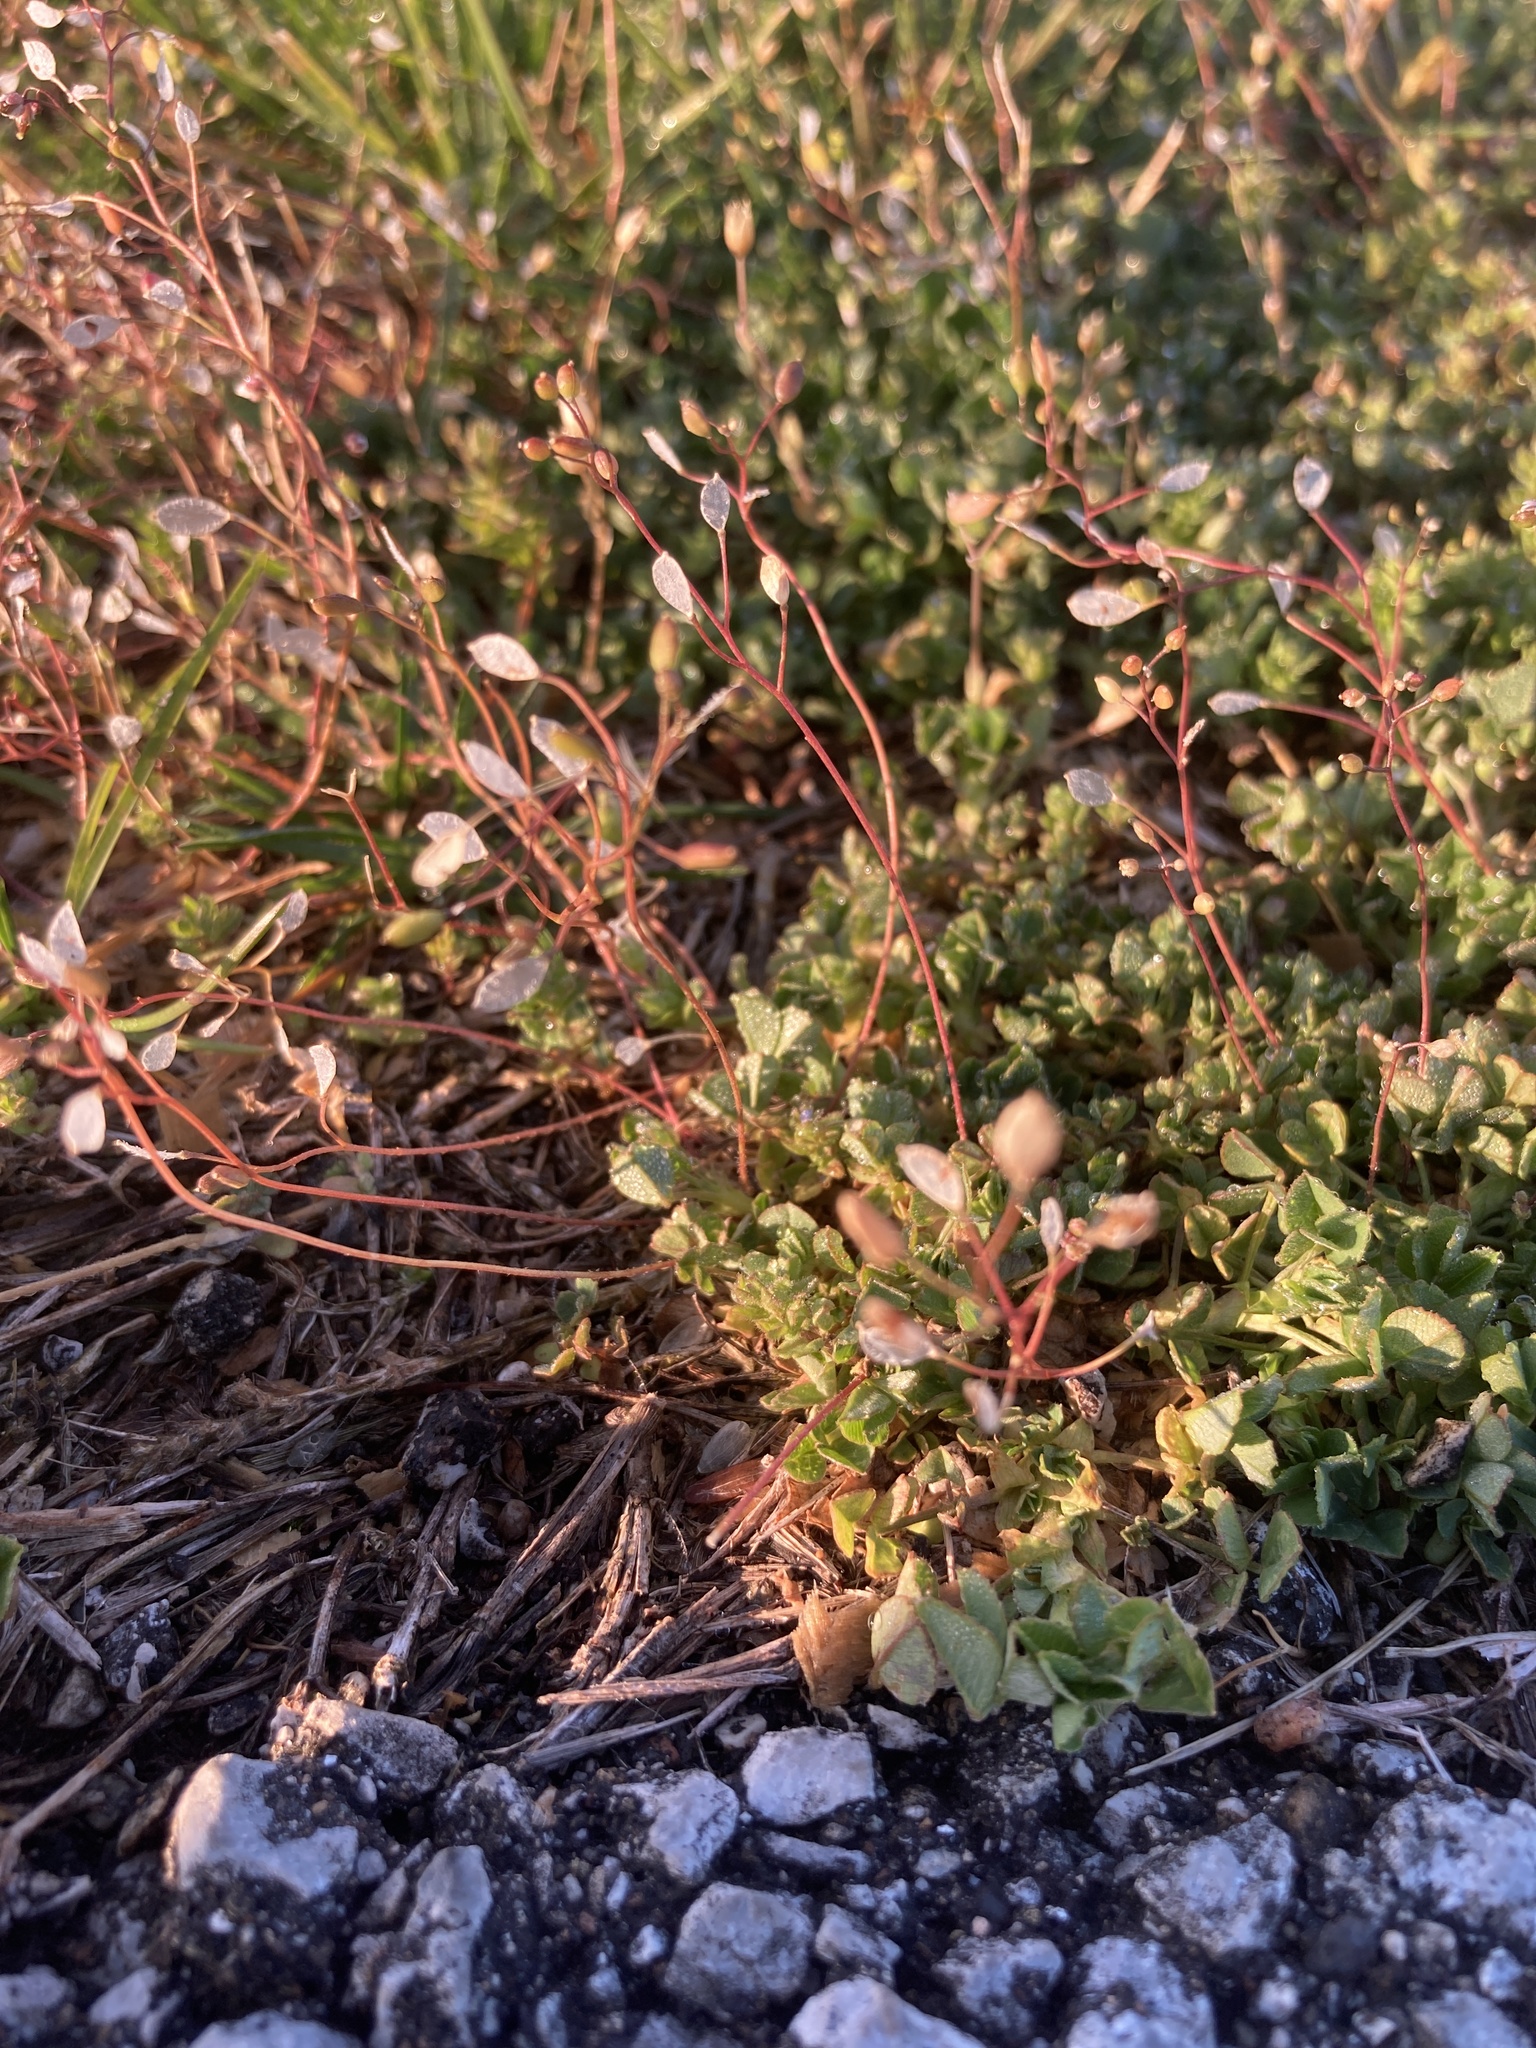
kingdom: Plantae
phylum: Tracheophyta
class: Magnoliopsida
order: Brassicales
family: Brassicaceae
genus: Draba
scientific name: Draba verna
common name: Spring draba
